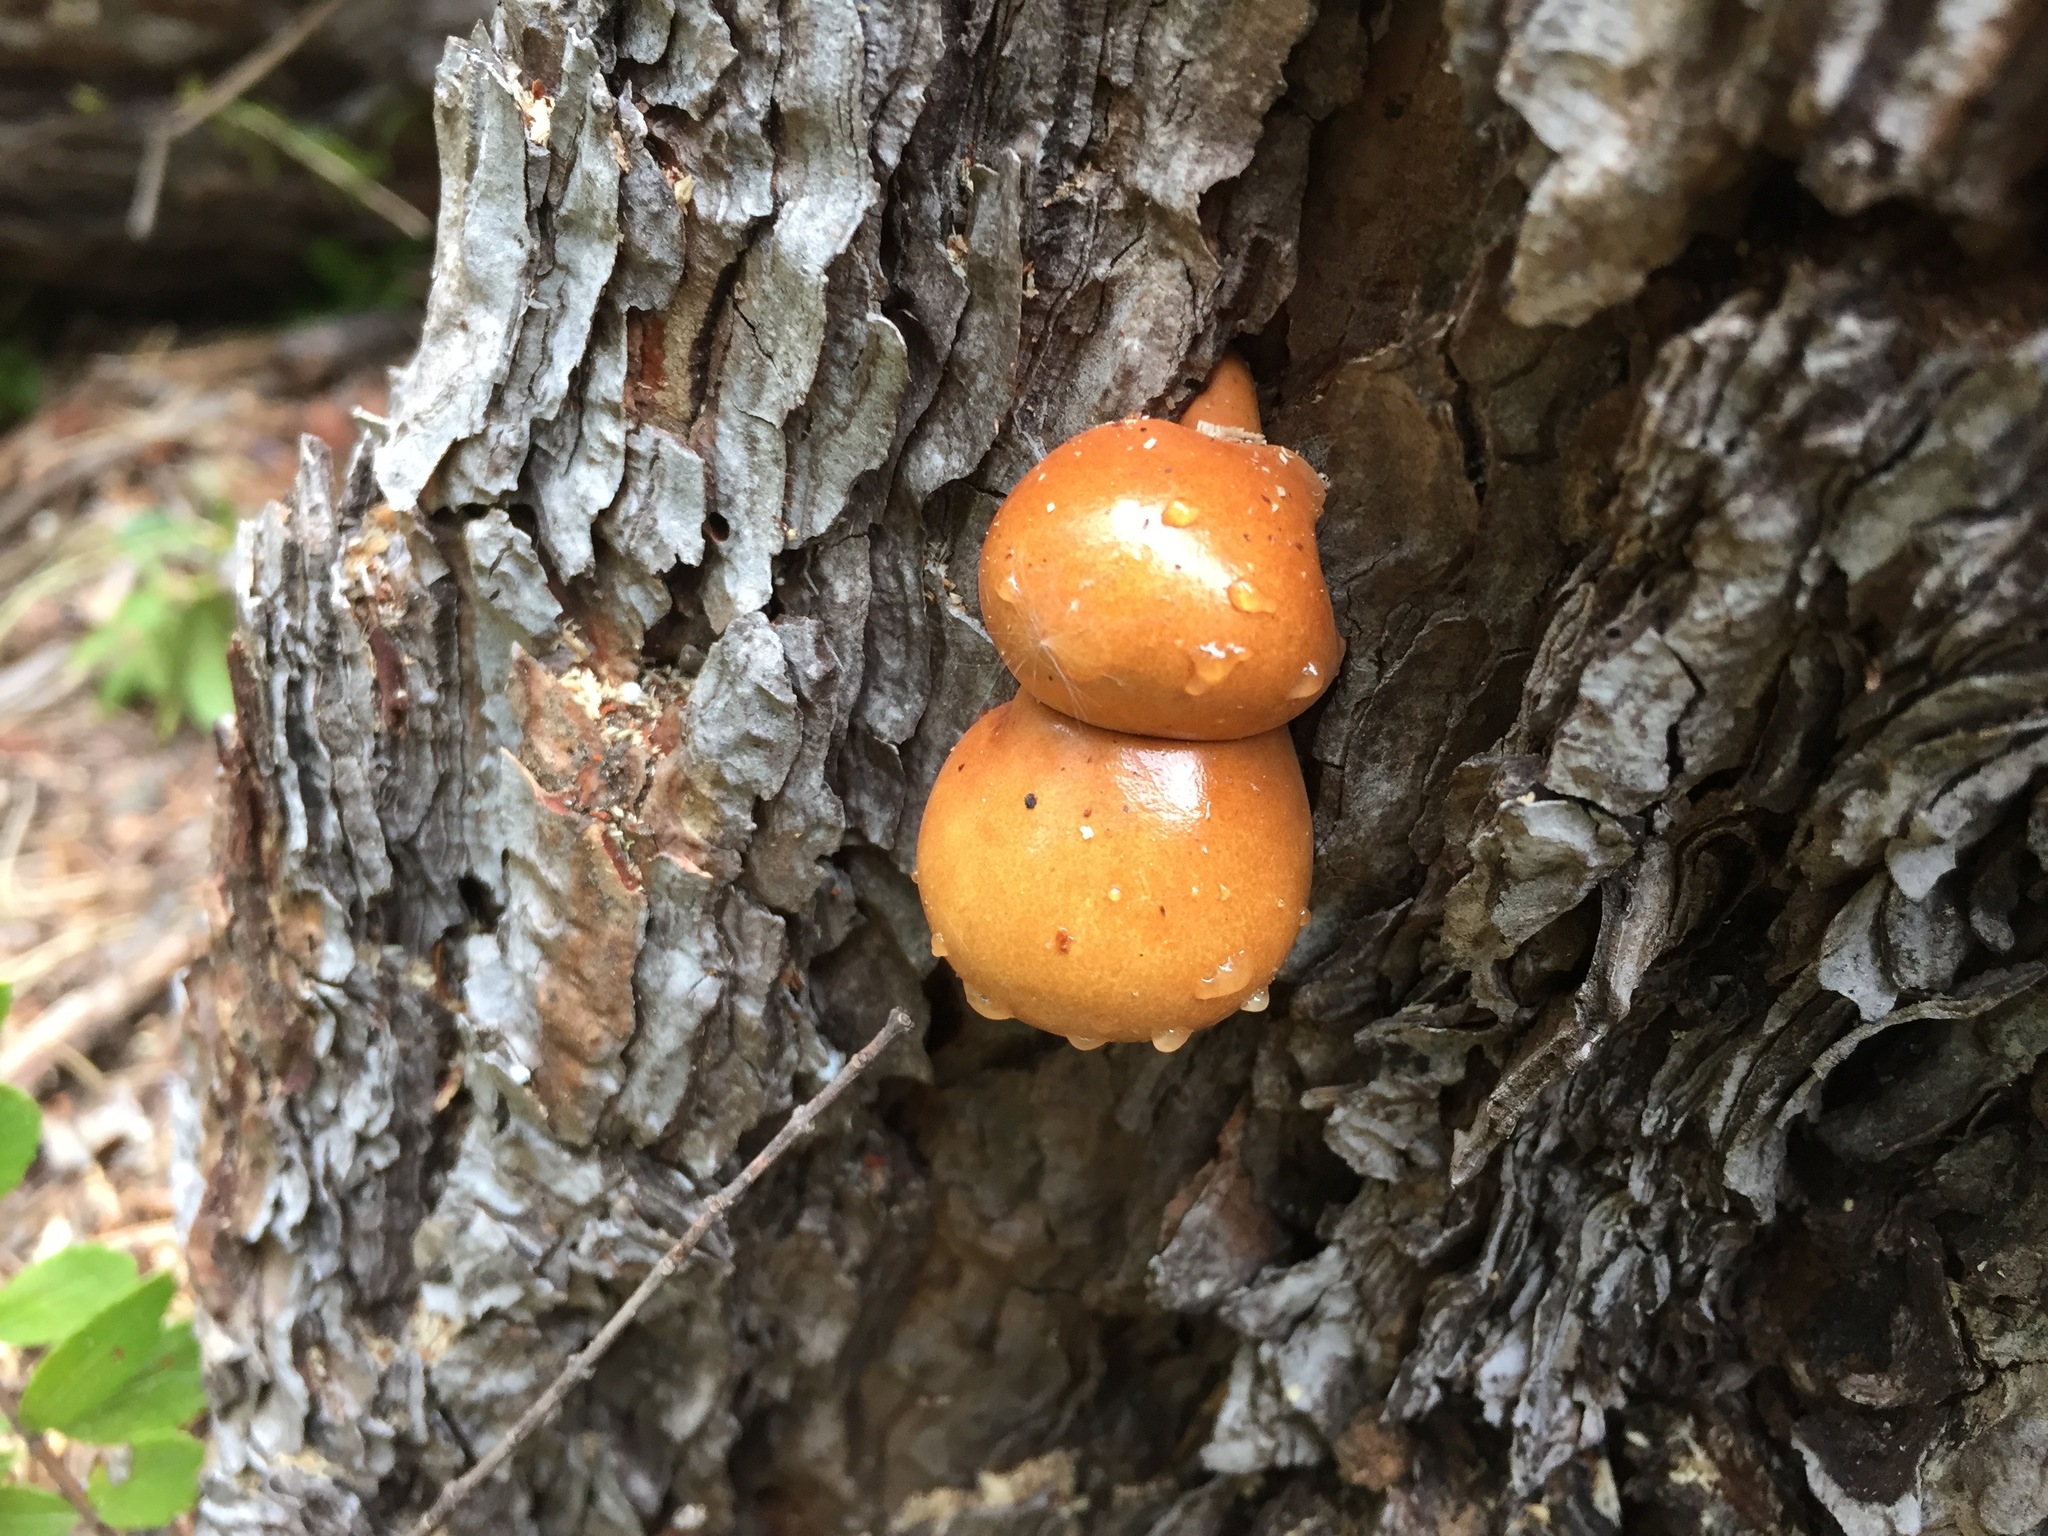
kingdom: Fungi
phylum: Basidiomycota
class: Agaricomycetes
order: Polyporales
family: Polyporaceae
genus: Cryptoporus
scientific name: Cryptoporus volvatus
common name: Veiled polypore
